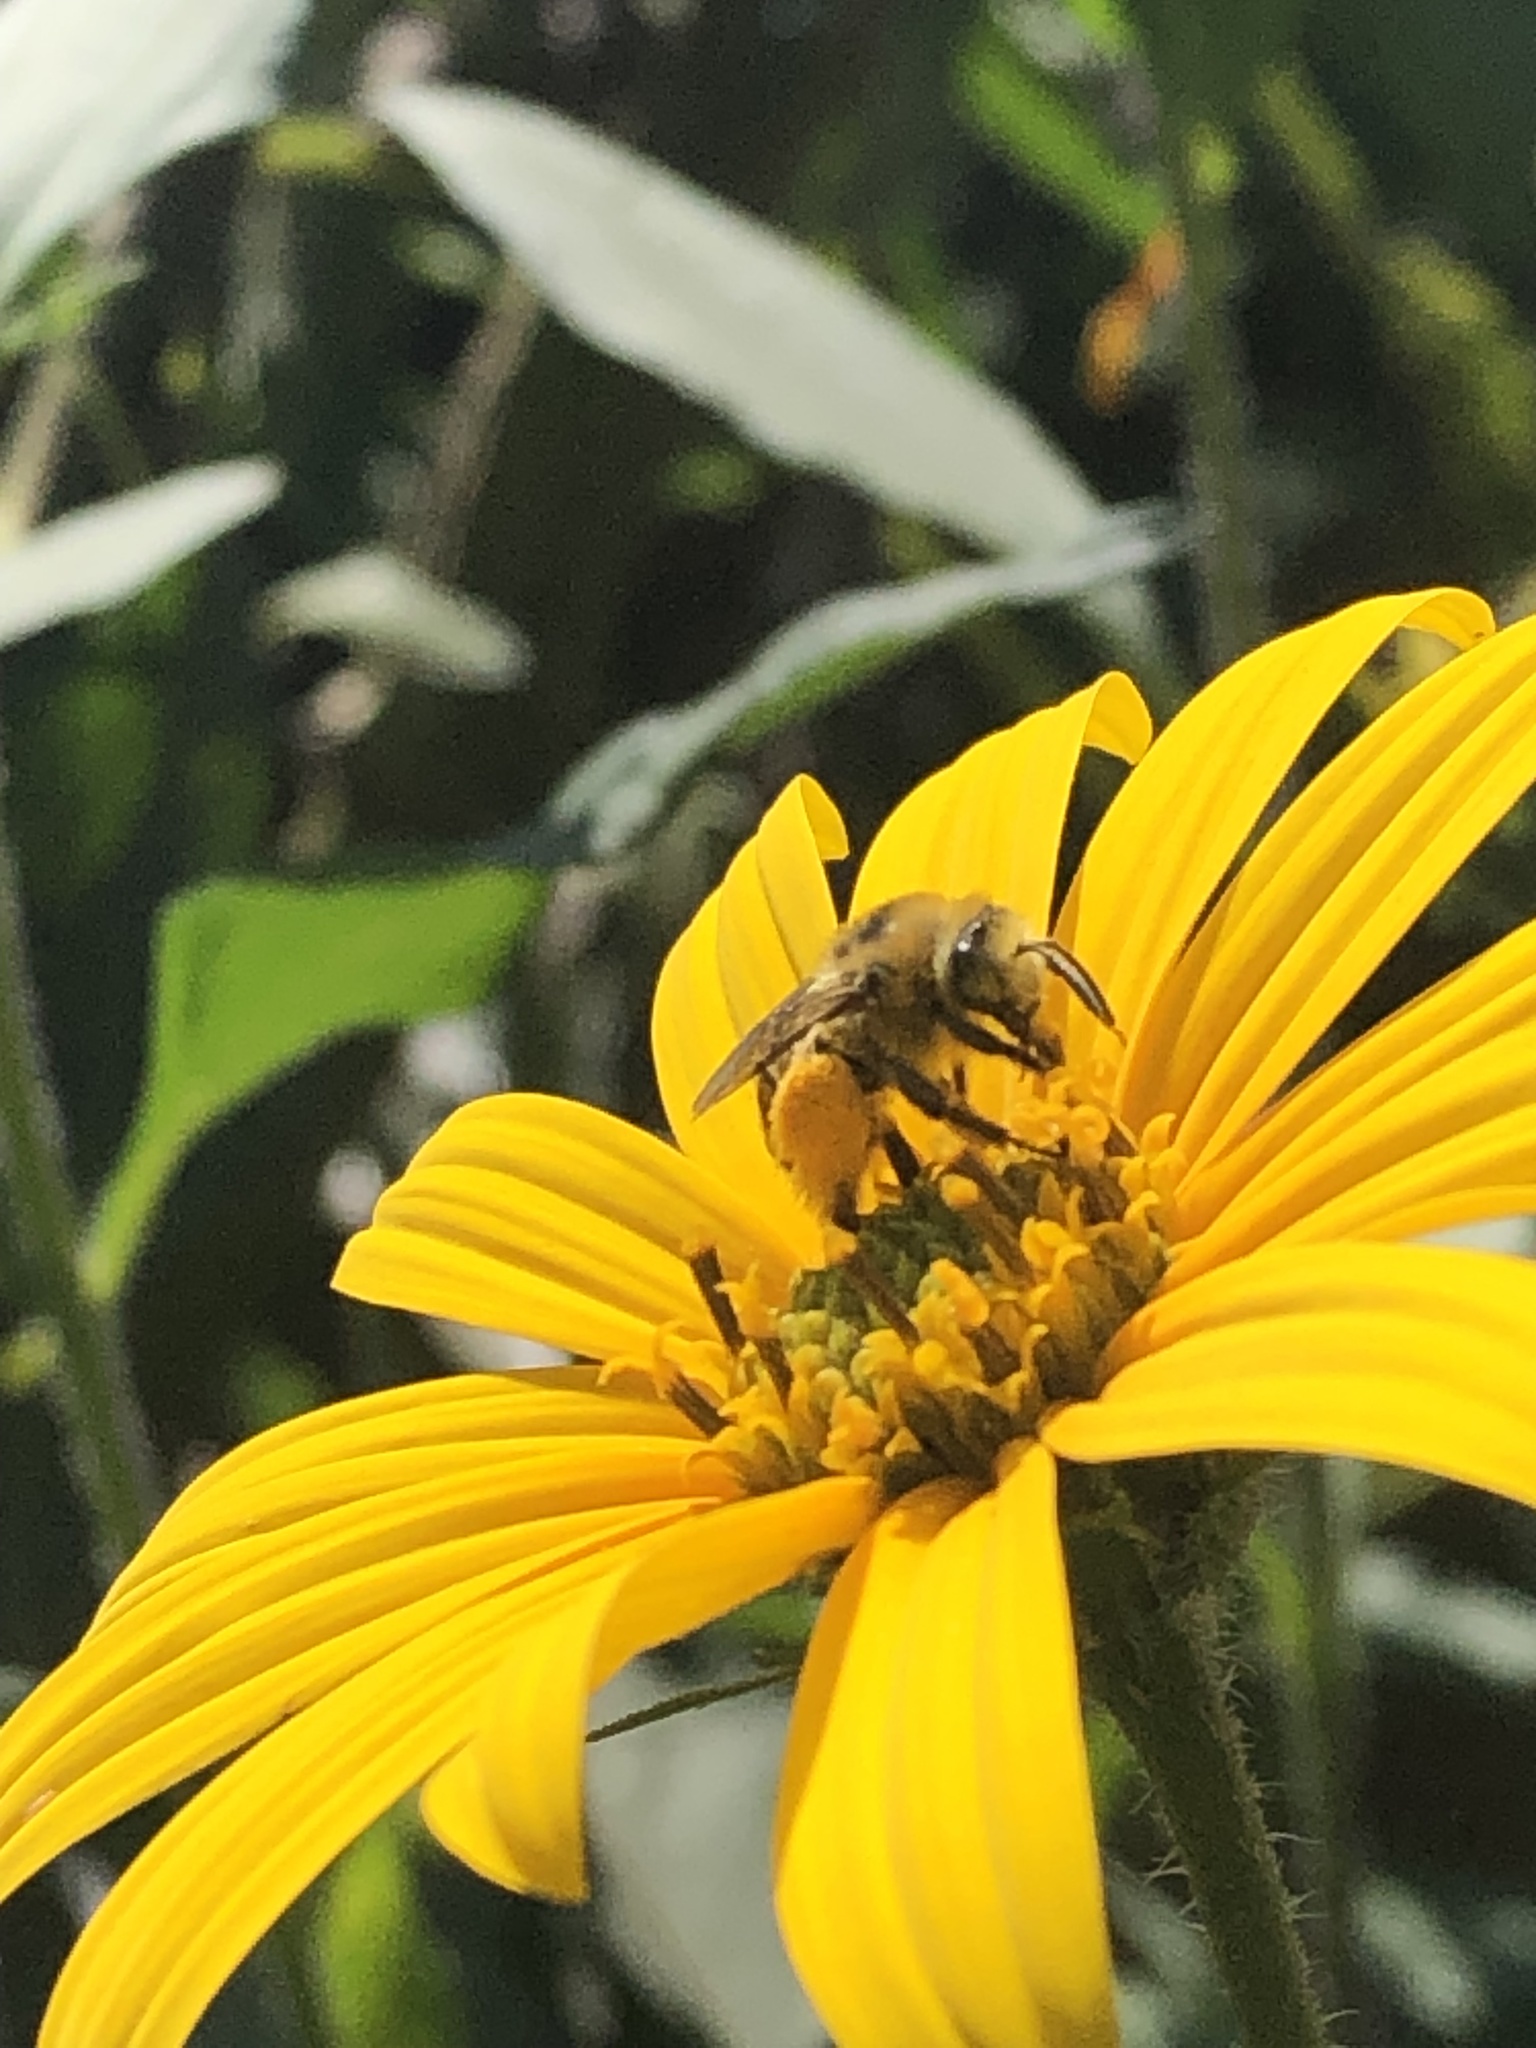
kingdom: Animalia
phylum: Arthropoda
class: Insecta
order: Hymenoptera
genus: Eumelissodes
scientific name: Eumelissodes
